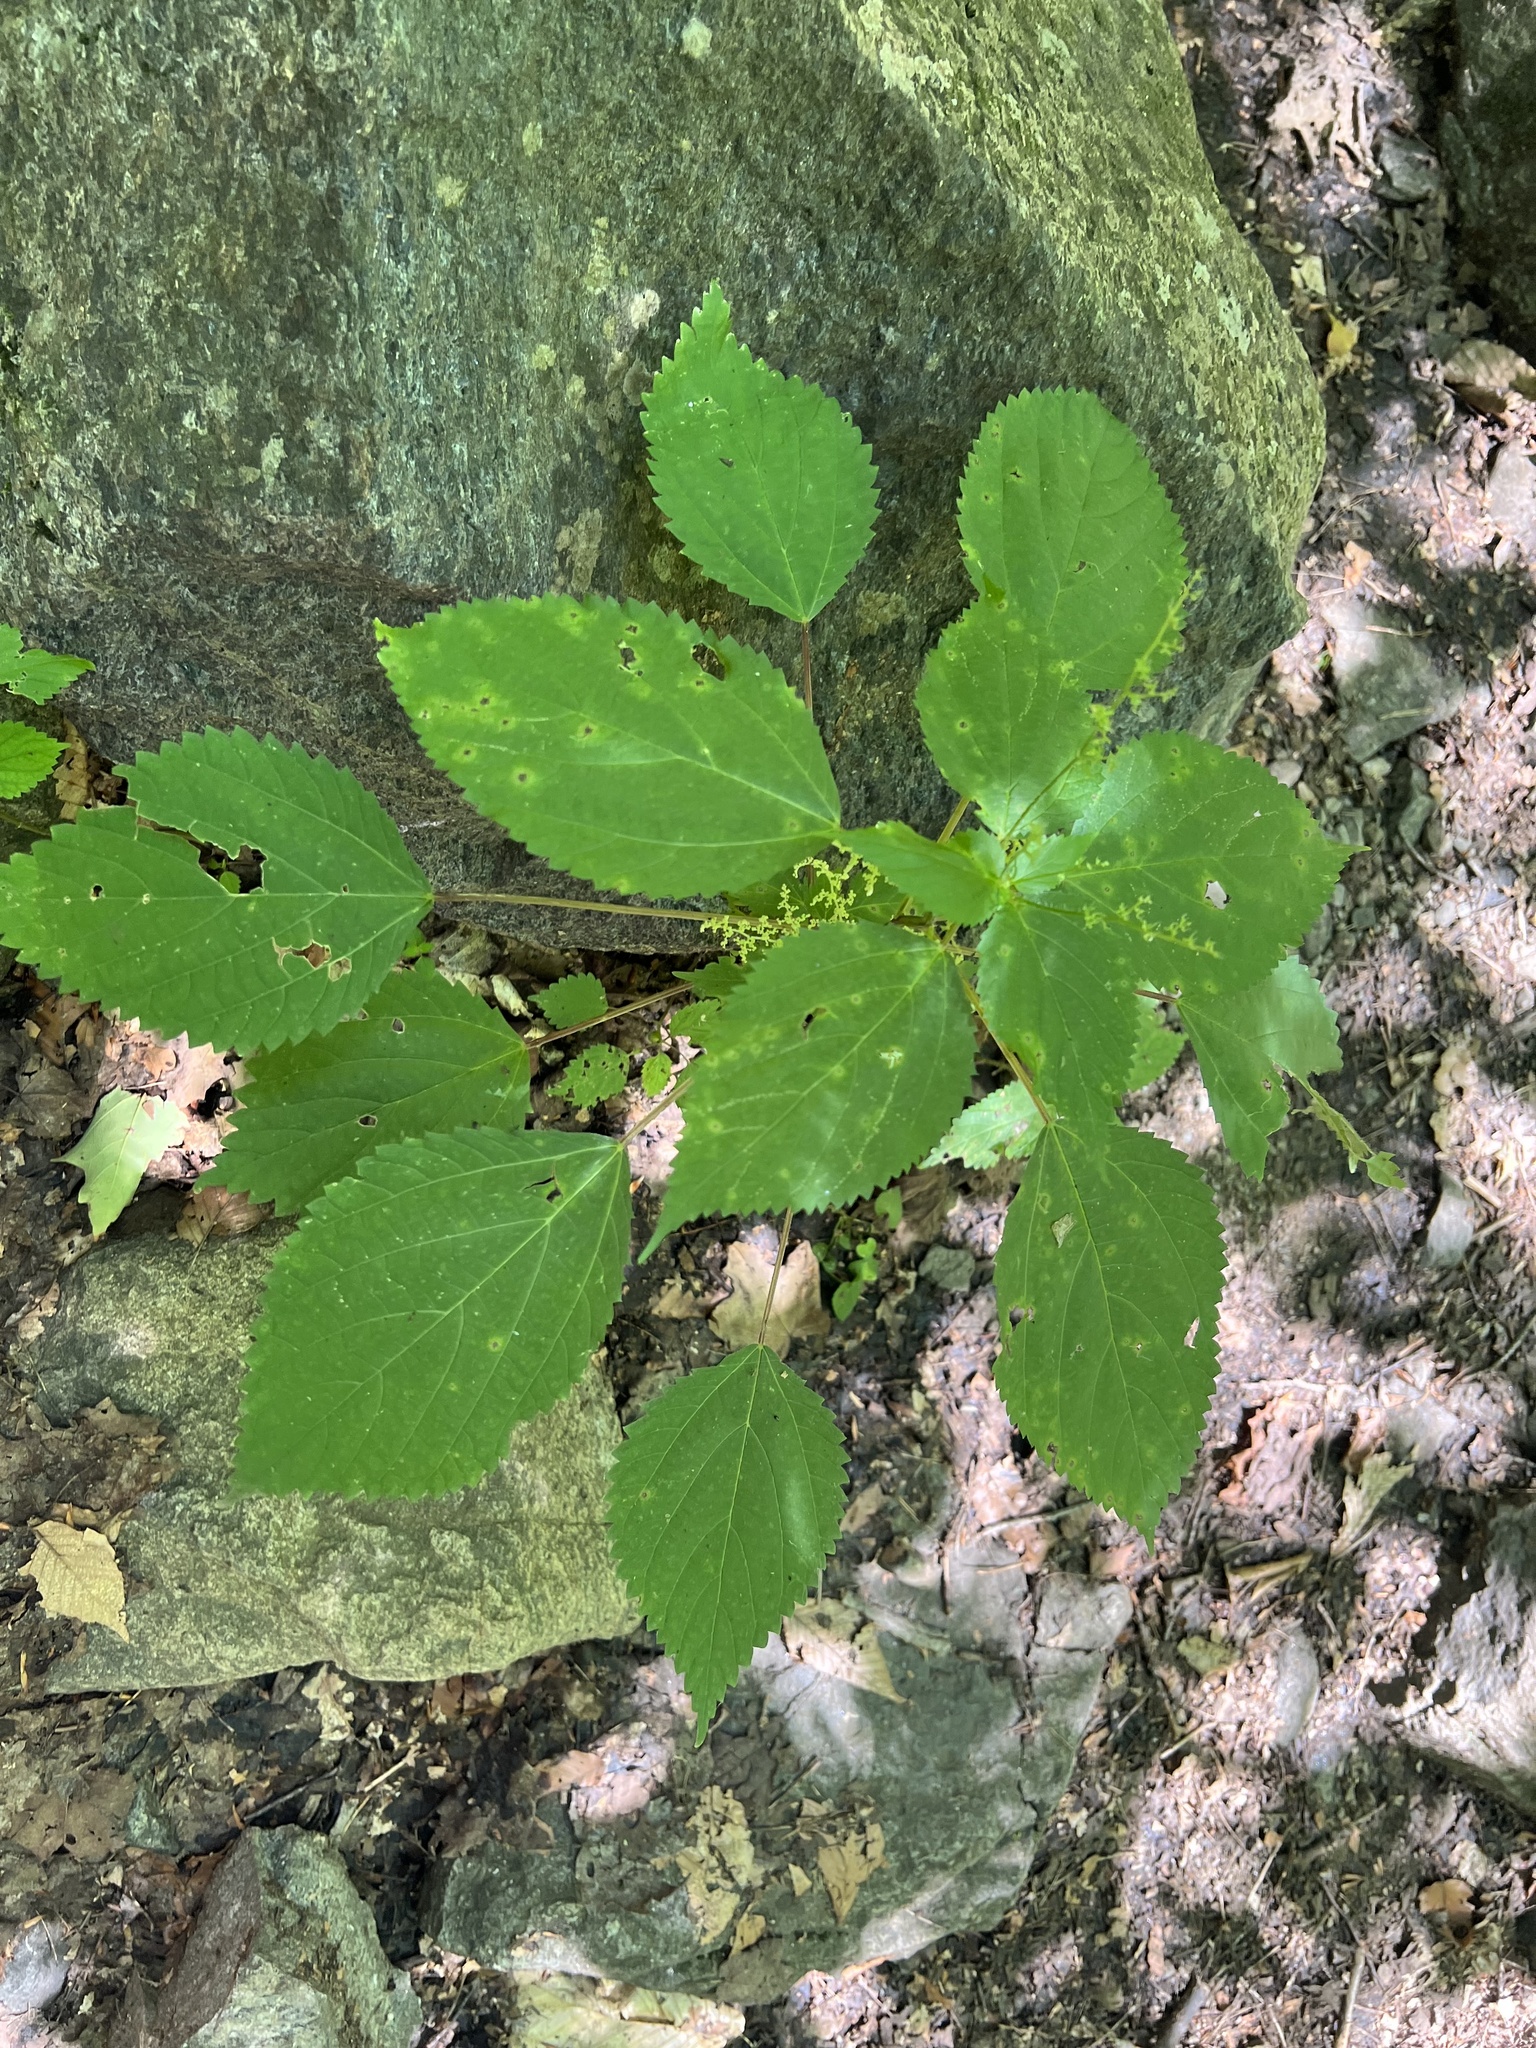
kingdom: Plantae
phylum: Tracheophyta
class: Magnoliopsida
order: Rosales
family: Urticaceae
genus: Laportea
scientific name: Laportea canadensis
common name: Canada nettle
